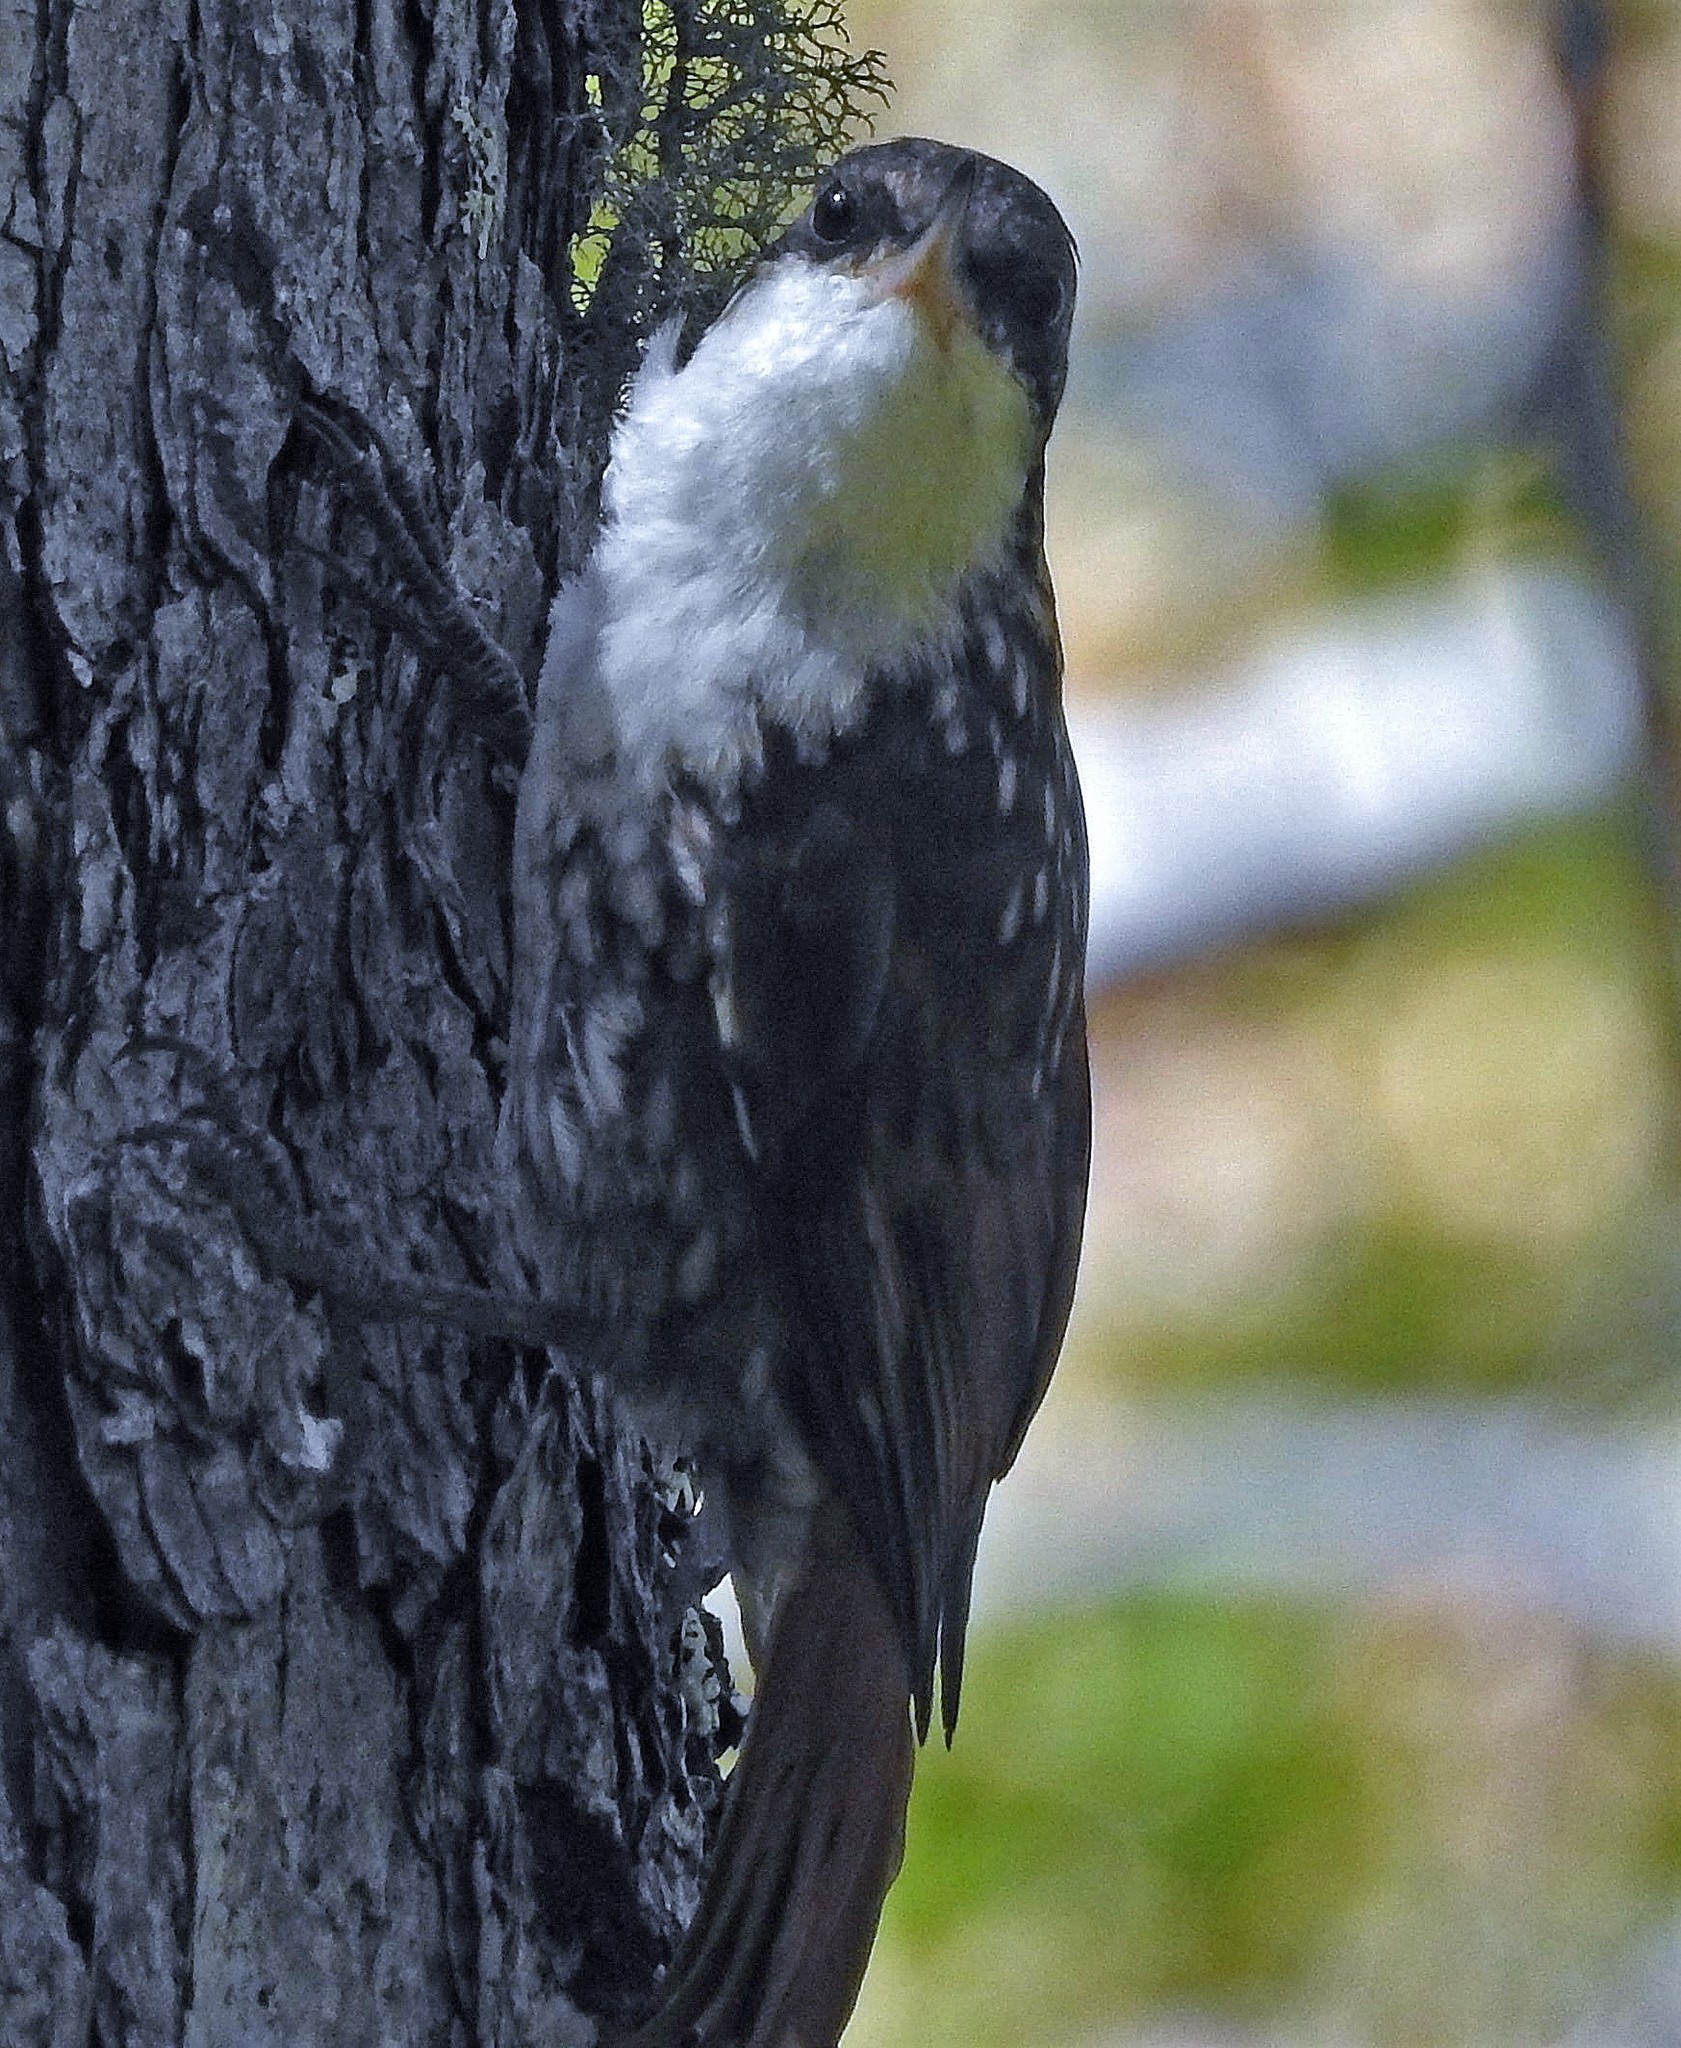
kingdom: Animalia
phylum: Chordata
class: Aves
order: Passeriformes
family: Furnariidae
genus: Pygarrhichas
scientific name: Pygarrhichas albogularis
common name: White-throated treerunner
